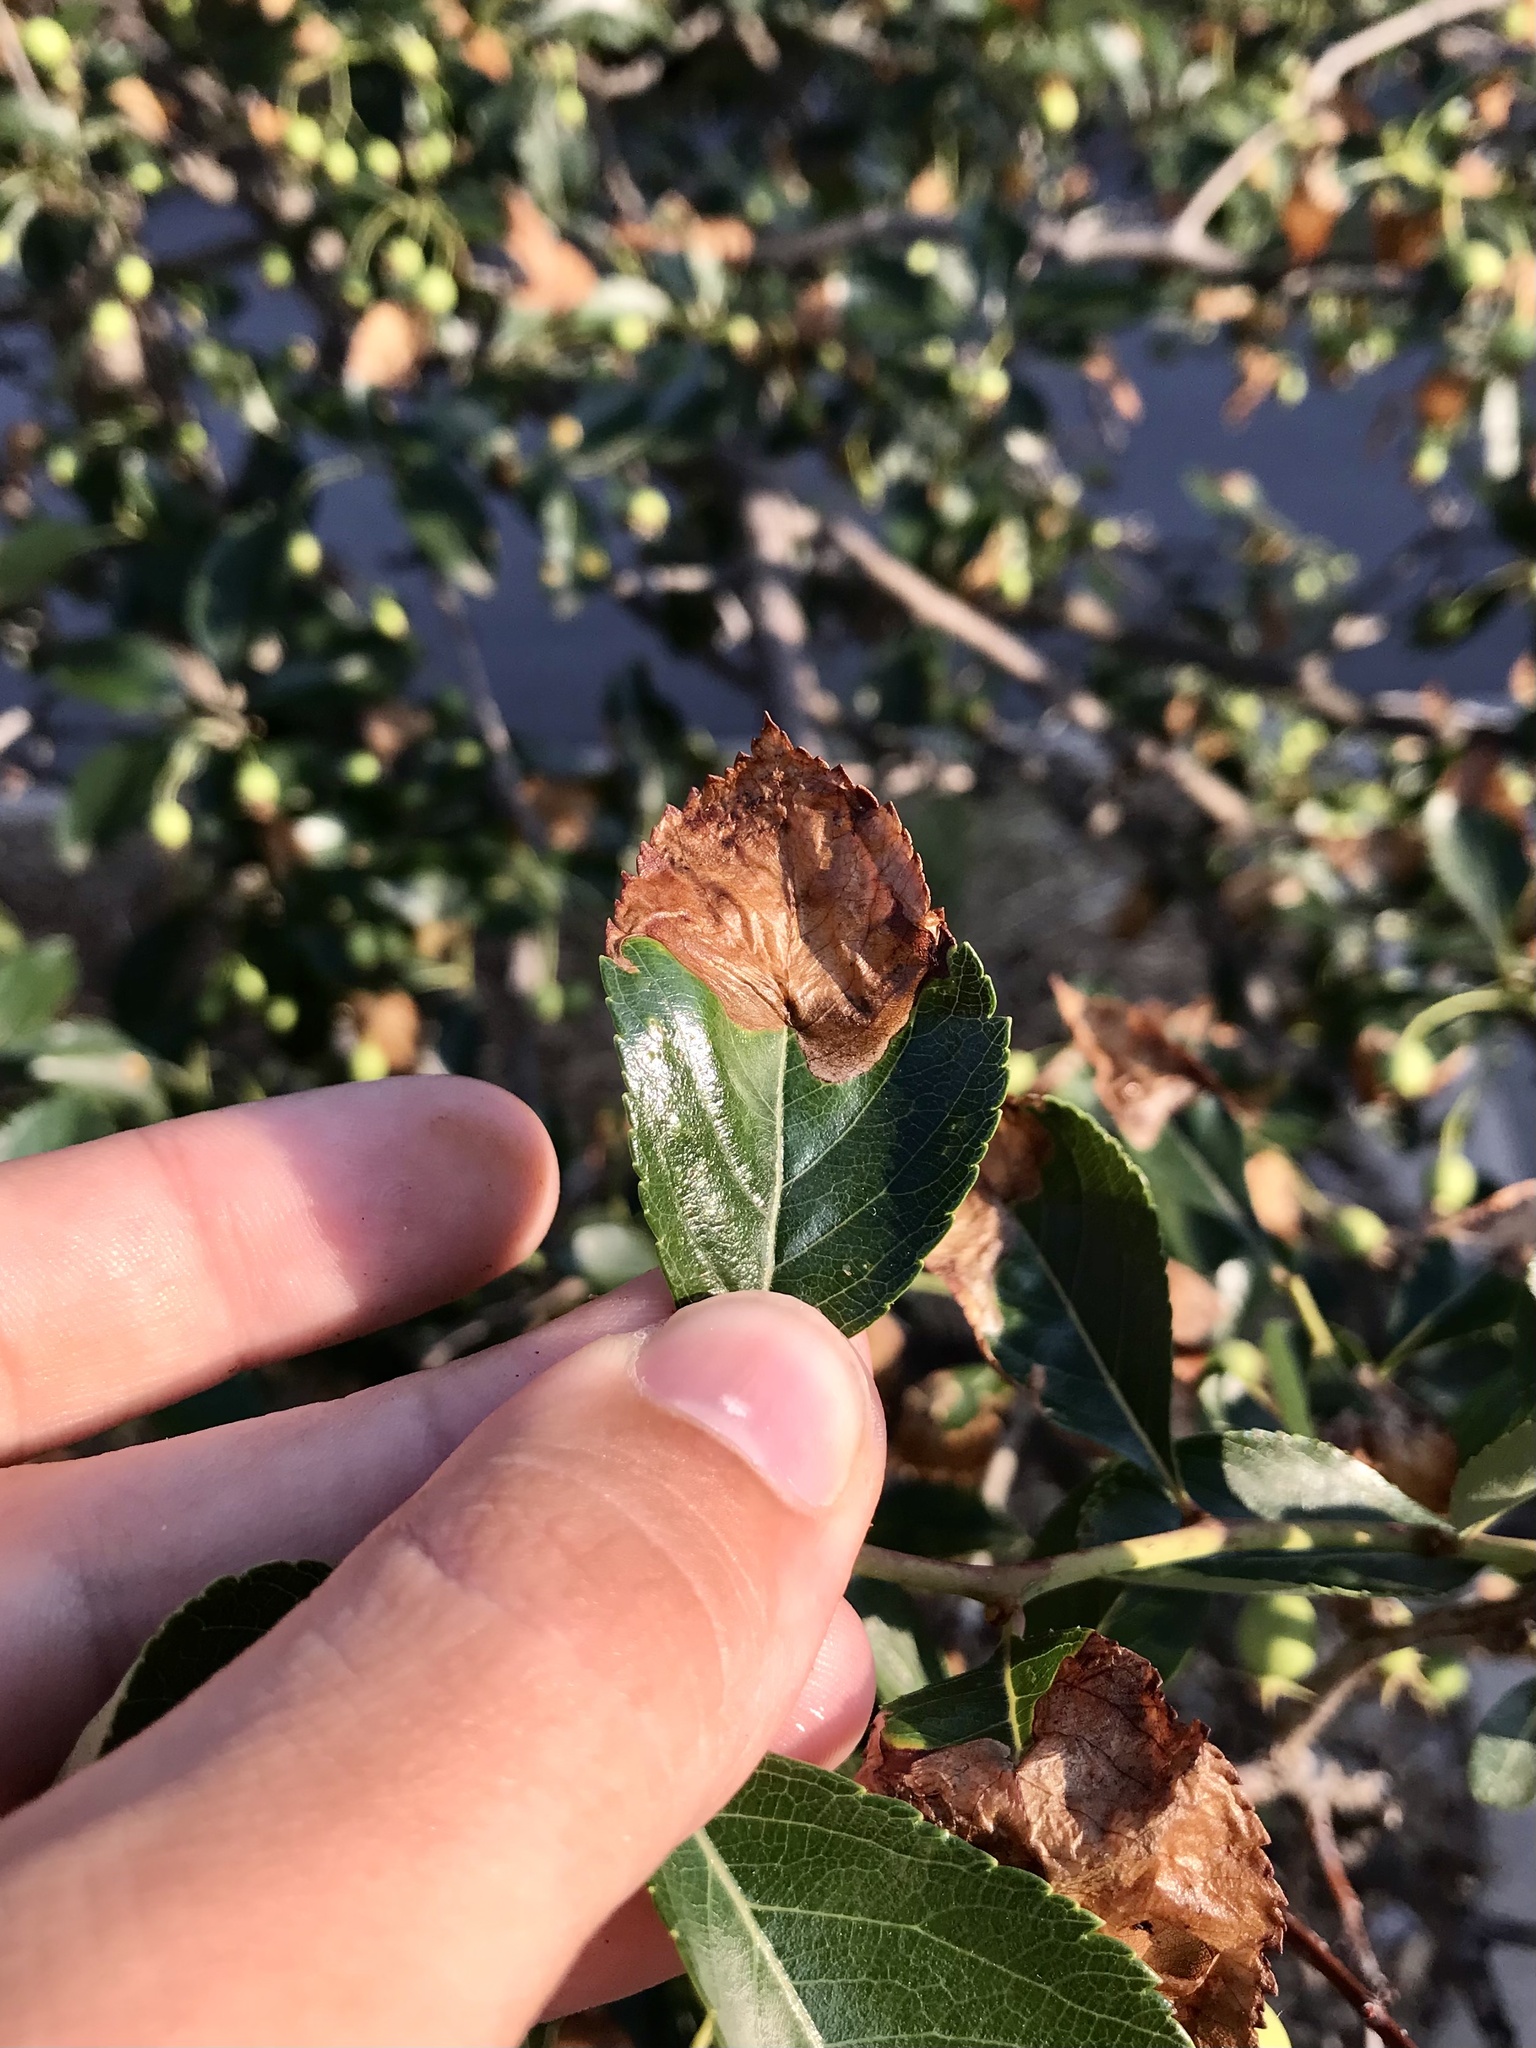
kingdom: Animalia
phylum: Arthropoda
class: Insecta
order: Hymenoptera
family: Tenthredinidae
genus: Profenusa
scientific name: Profenusa
